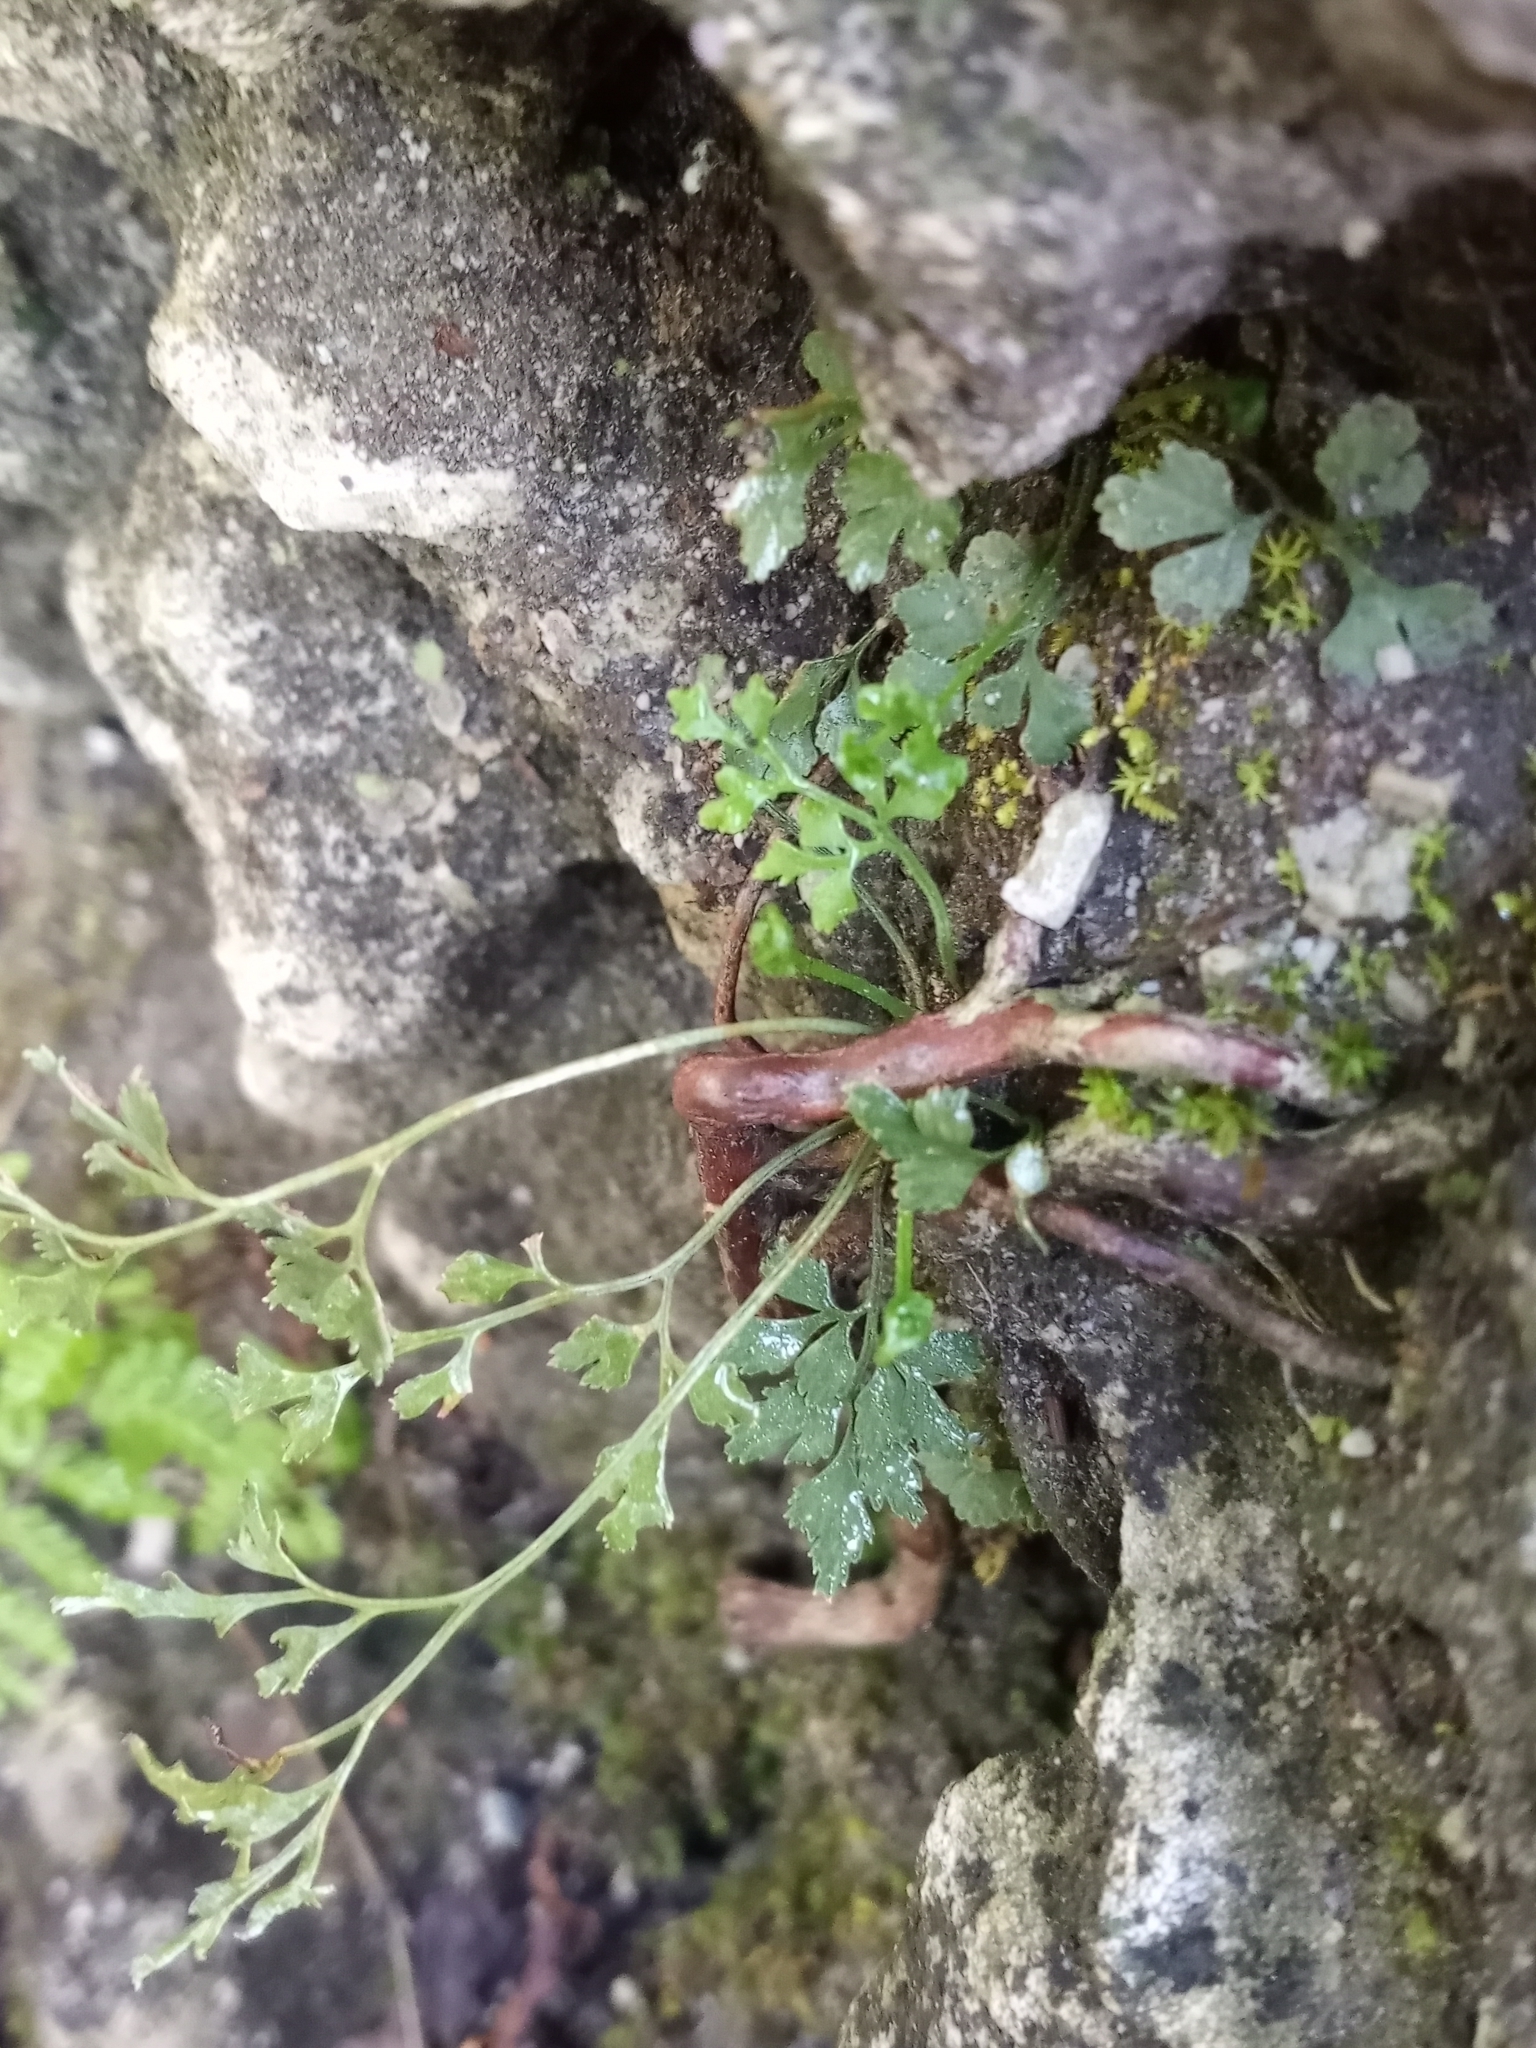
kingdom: Plantae
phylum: Tracheophyta
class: Polypodiopsida
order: Polypodiales
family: Aspleniaceae
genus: Asplenium
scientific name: Asplenium ruta-muraria
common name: Wall-rue
